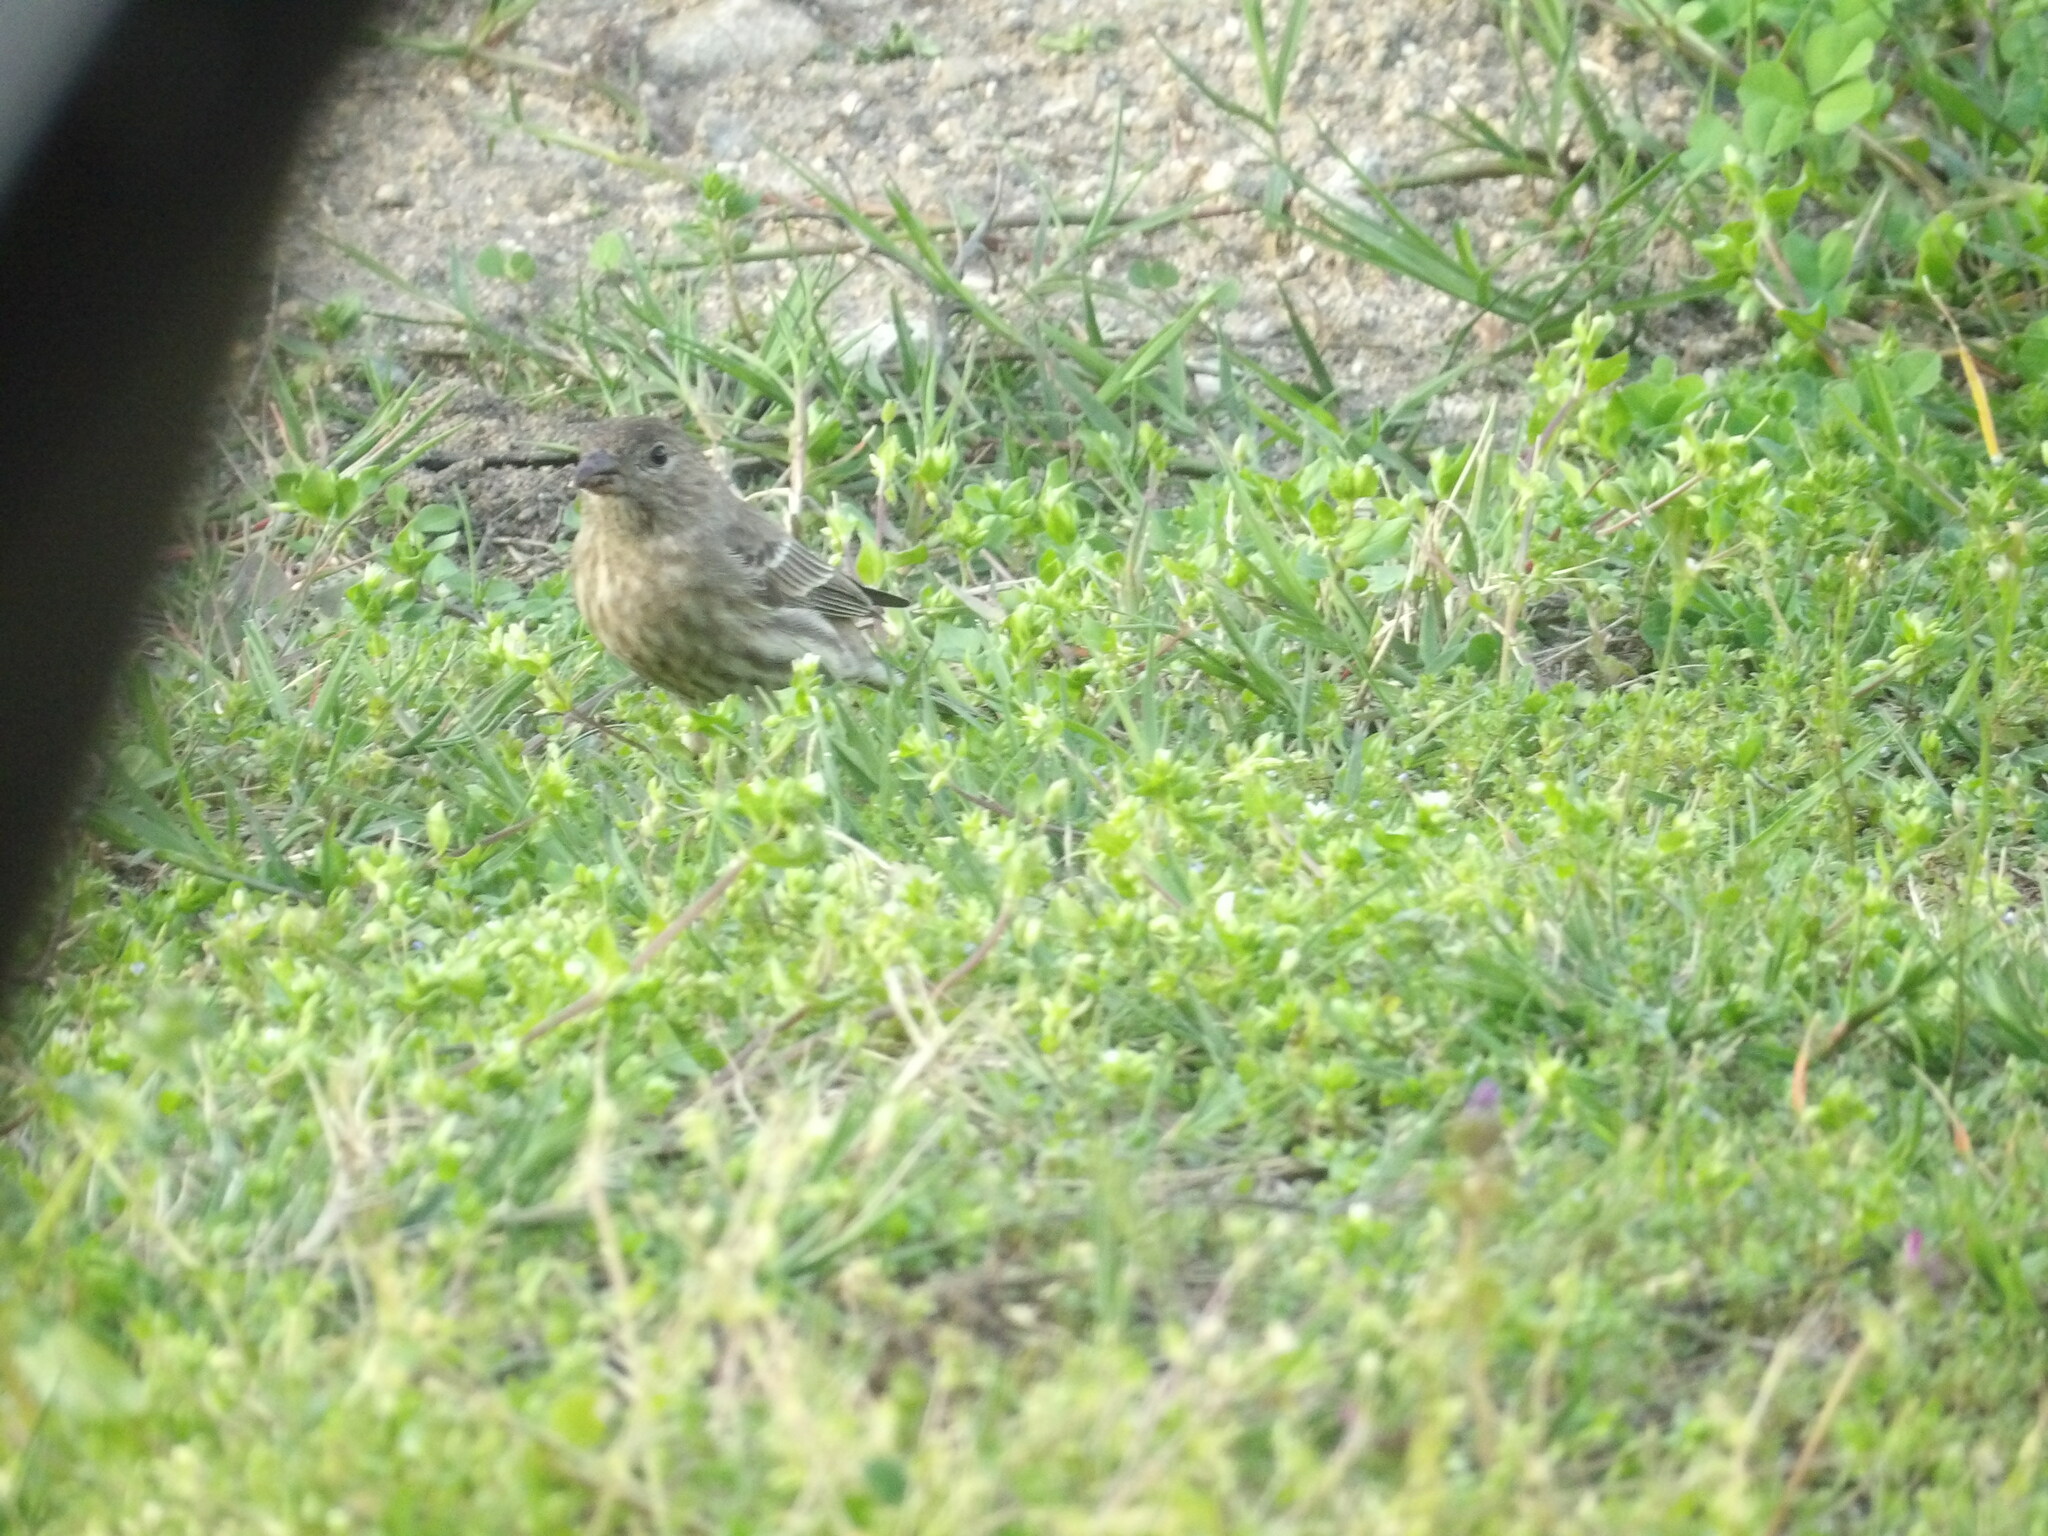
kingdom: Animalia
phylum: Chordata
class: Aves
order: Passeriformes
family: Fringillidae
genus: Haemorhous
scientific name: Haemorhous mexicanus
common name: House finch
